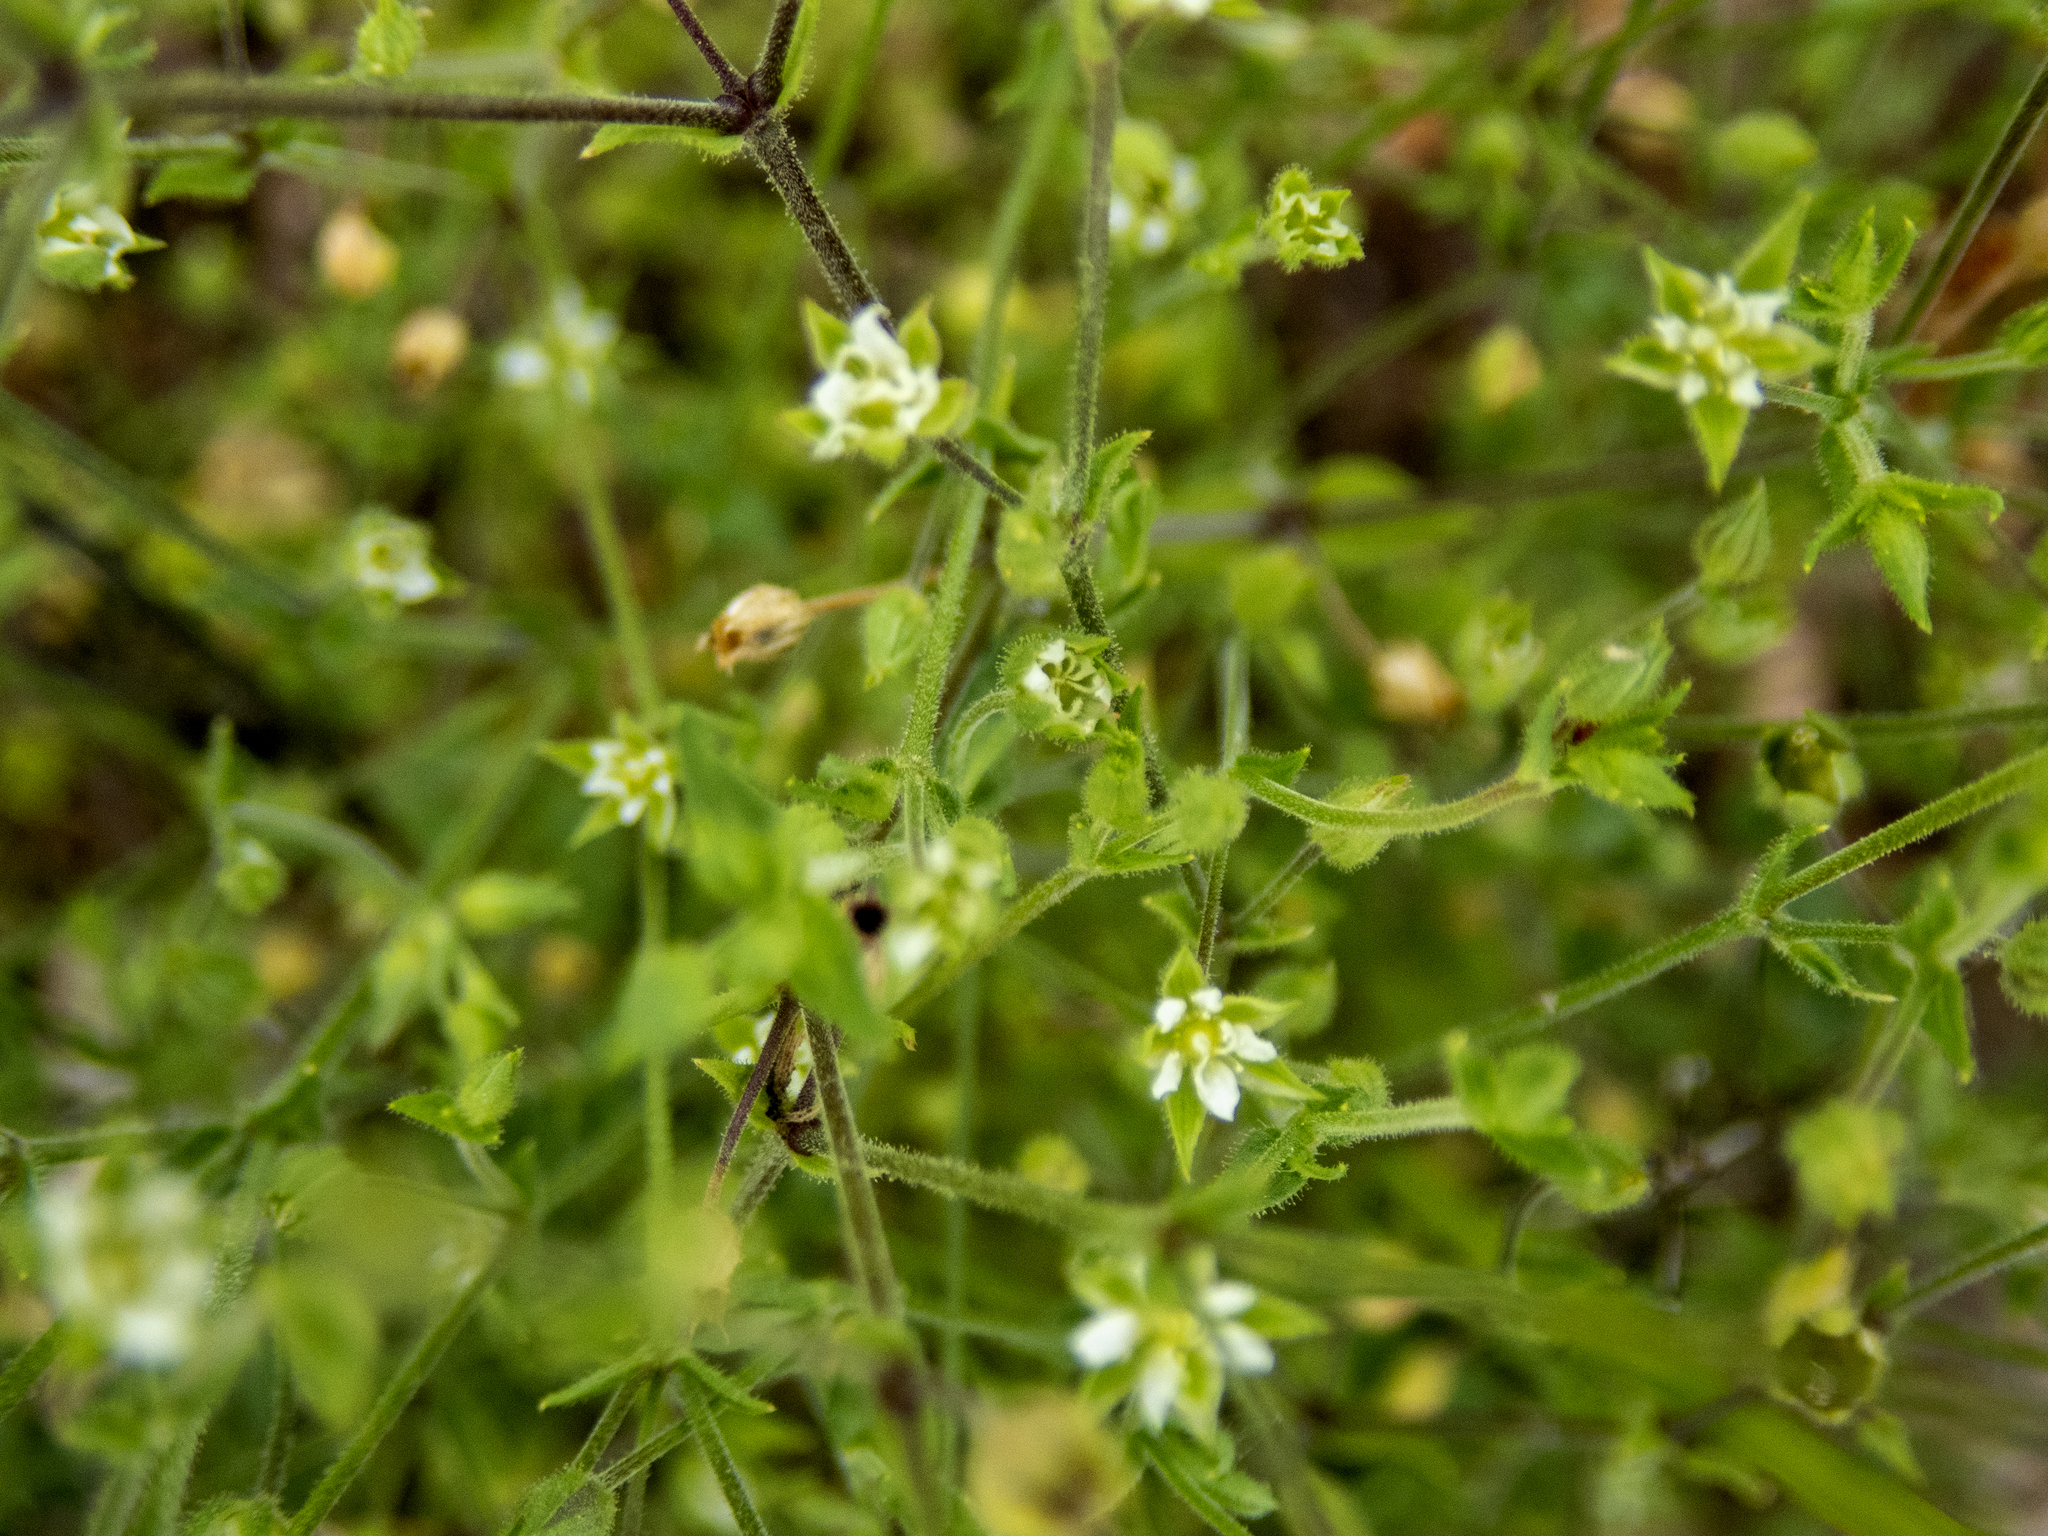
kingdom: Plantae
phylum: Tracheophyta
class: Magnoliopsida
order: Caryophyllales
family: Caryophyllaceae
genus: Arenaria
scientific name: Arenaria serpyllifolia
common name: Thyme-leaved sandwort
